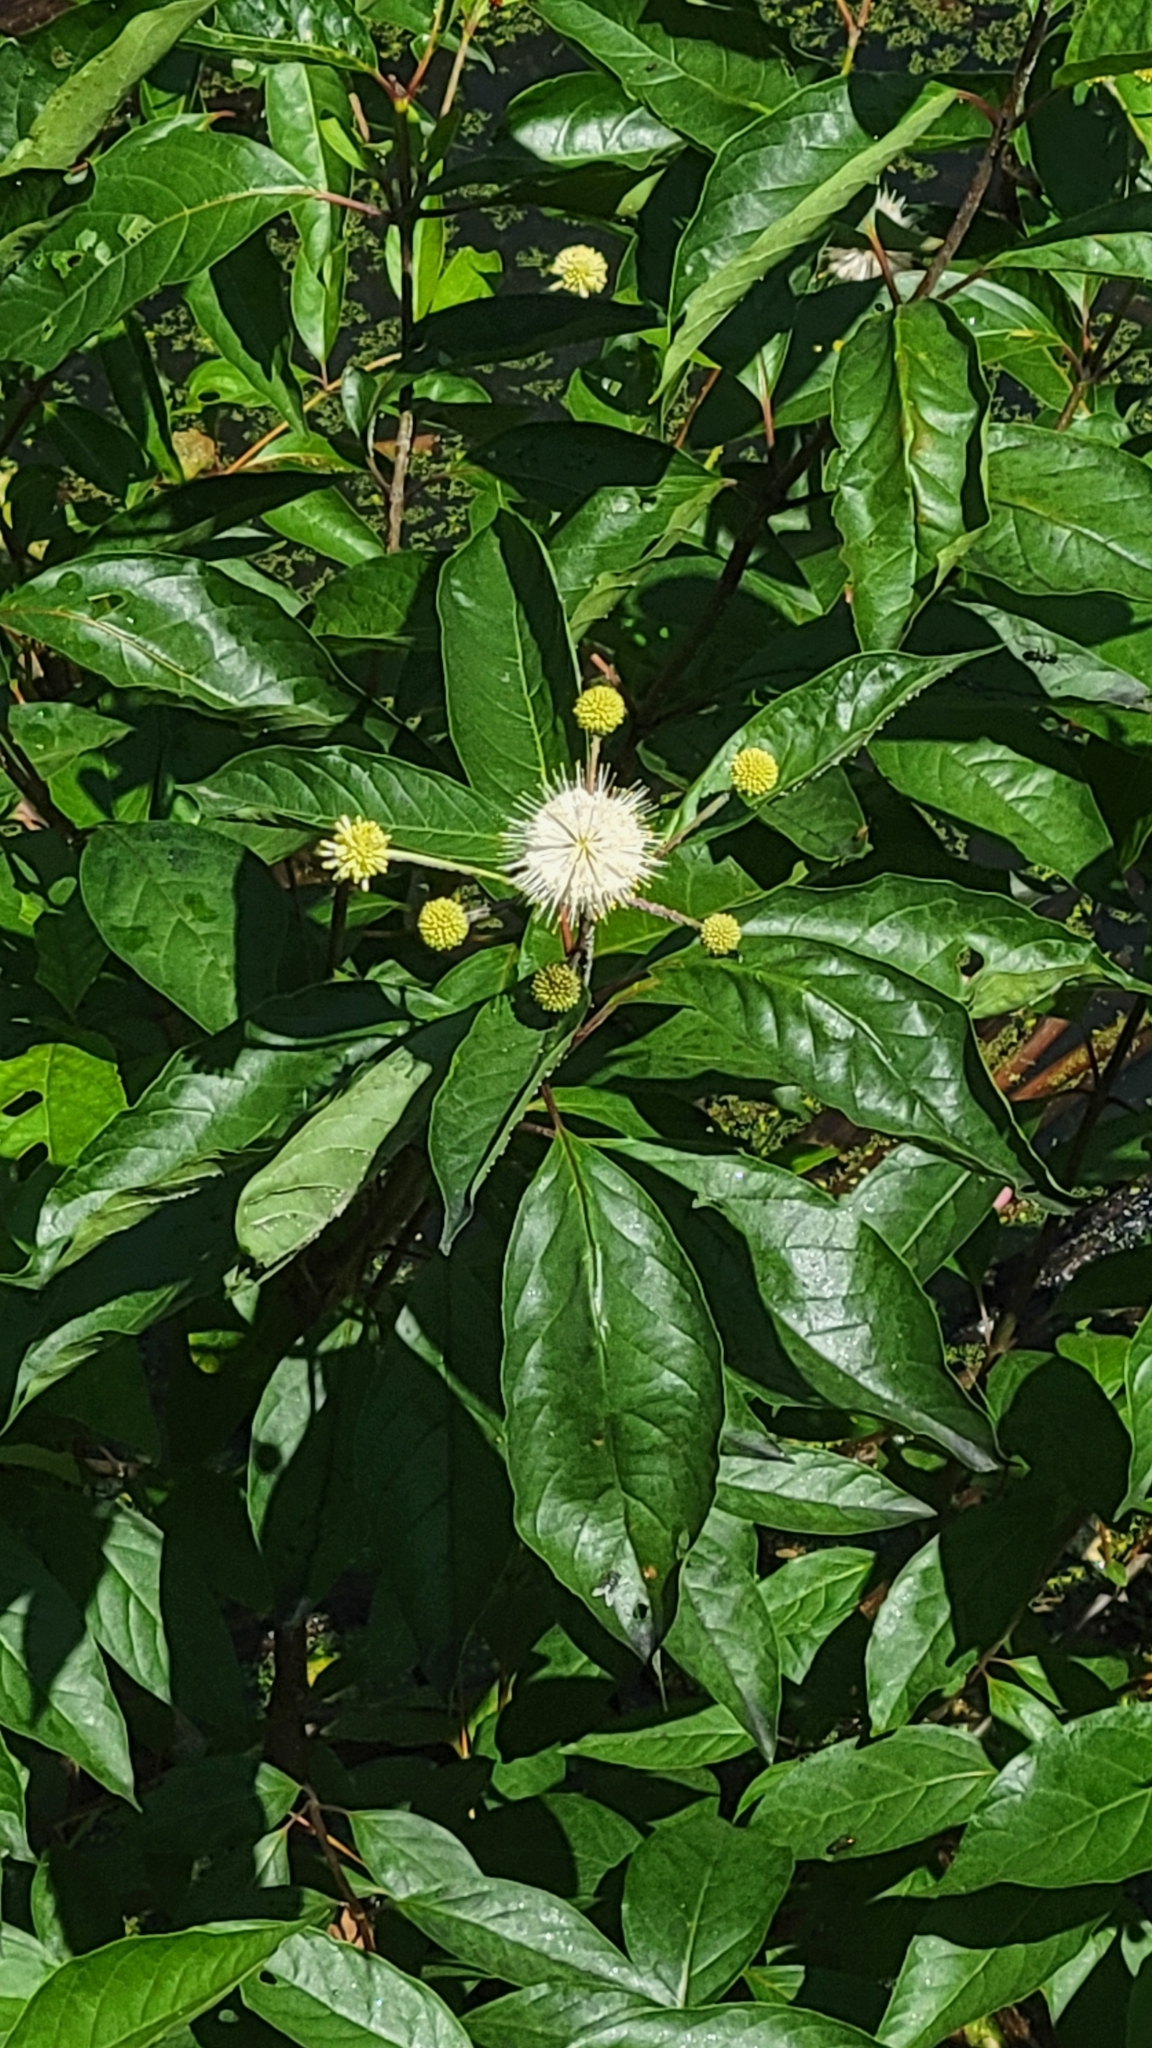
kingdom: Plantae
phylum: Tracheophyta
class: Magnoliopsida
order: Gentianales
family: Rubiaceae
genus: Cephalanthus
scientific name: Cephalanthus occidentalis
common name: Button-willow
